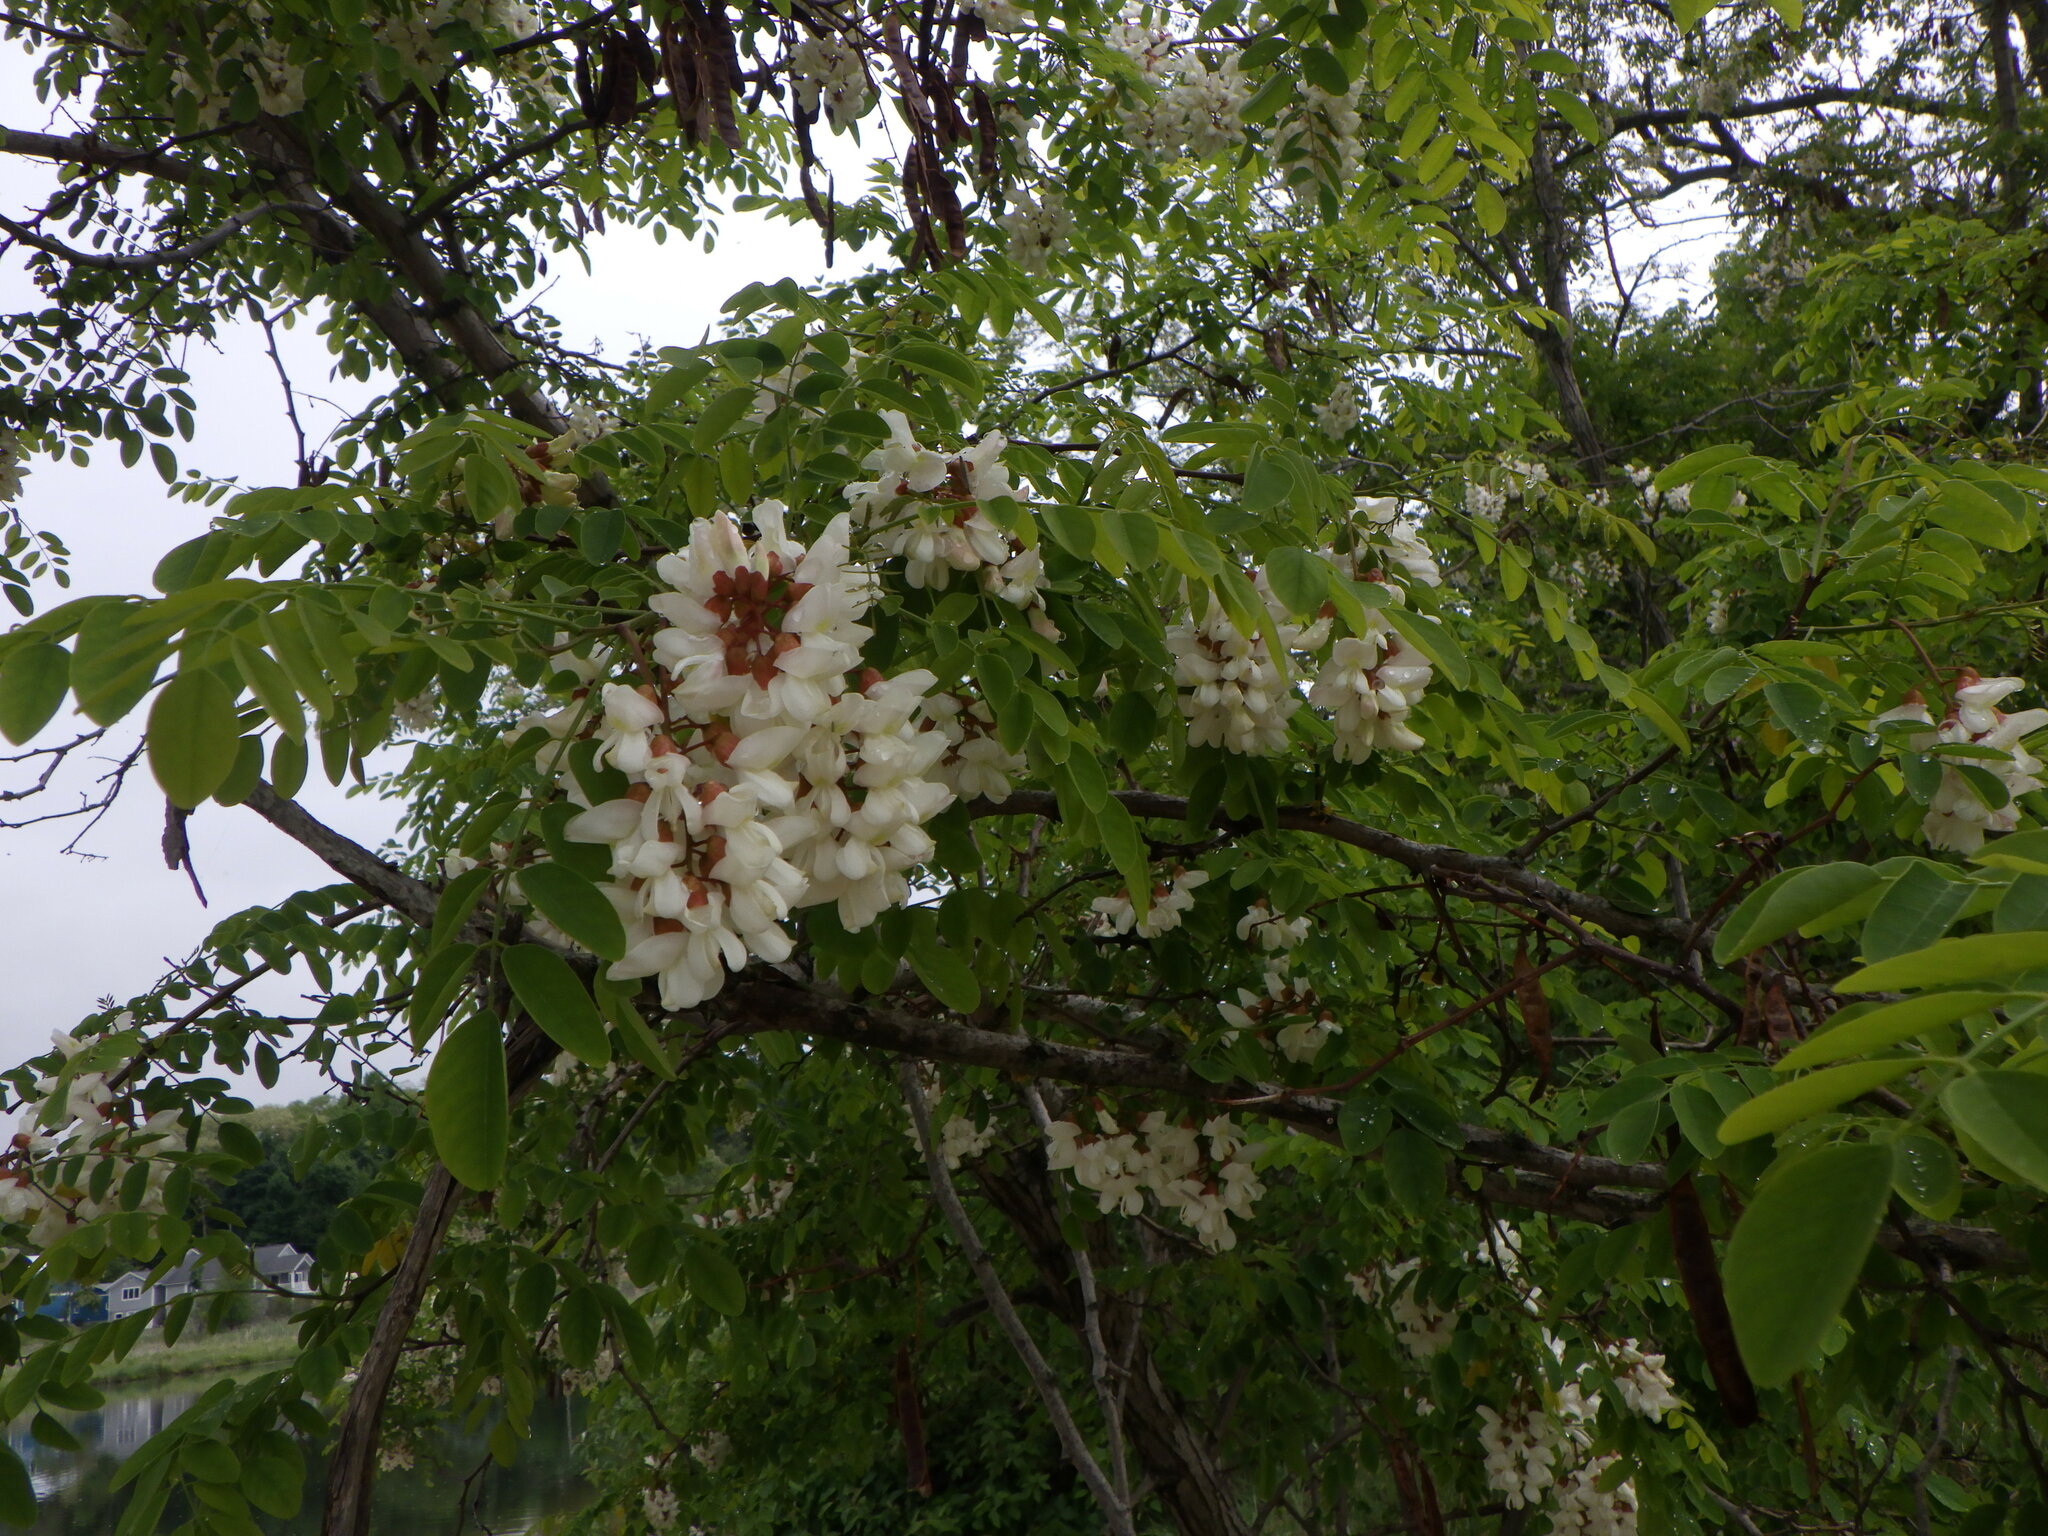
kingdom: Plantae
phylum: Tracheophyta
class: Magnoliopsida
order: Fabales
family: Fabaceae
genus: Robinia
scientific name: Robinia pseudoacacia
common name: Black locust
